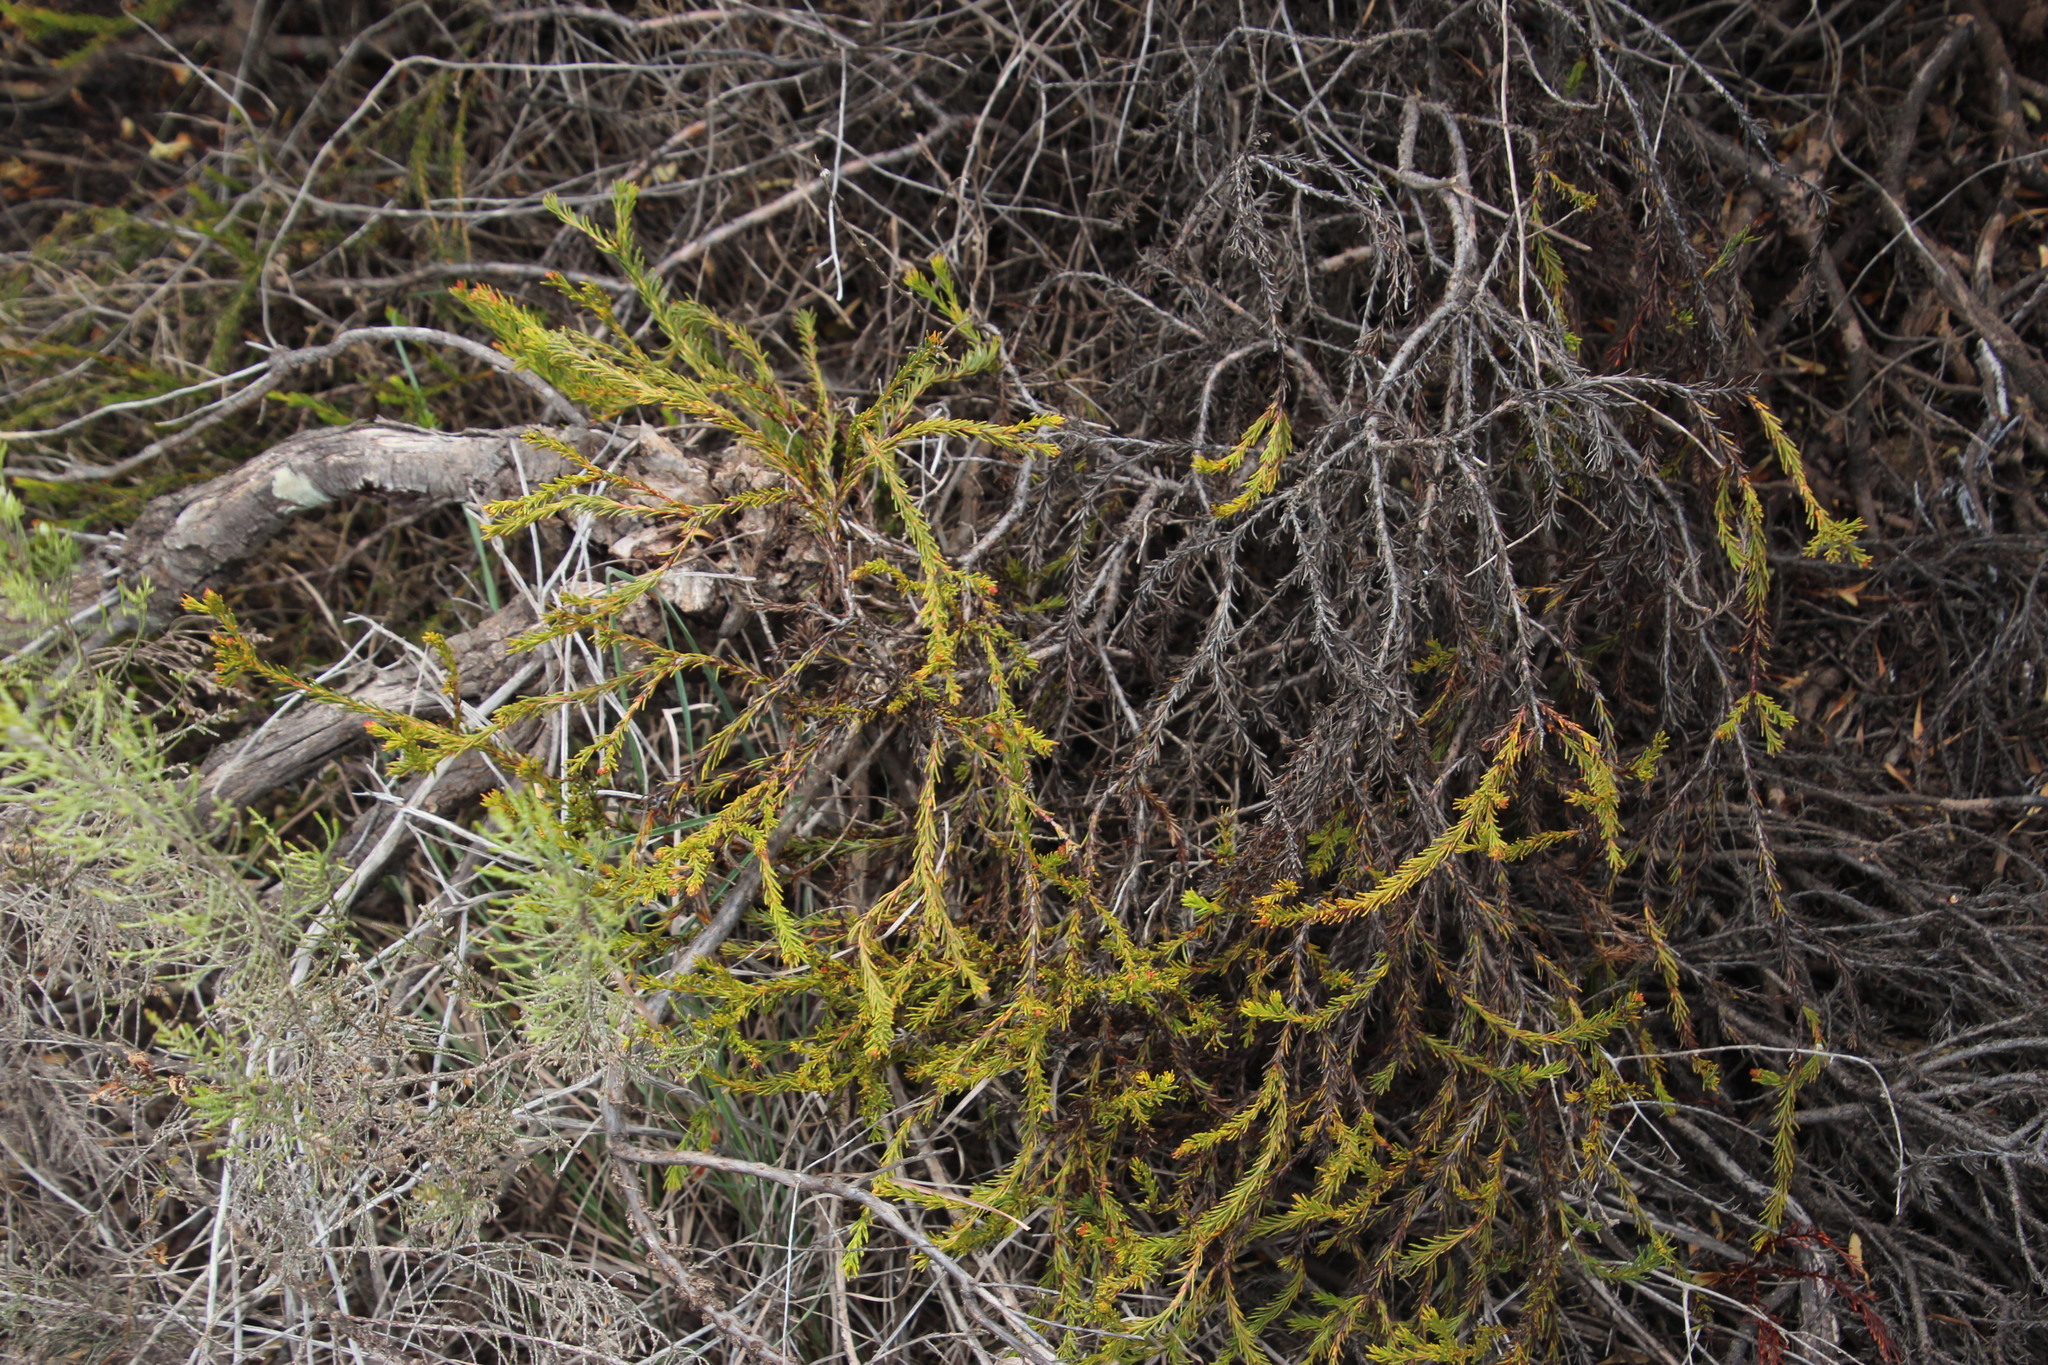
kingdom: Plantae
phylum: Tracheophyta
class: Magnoliopsida
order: Proteales
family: Proteaceae
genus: Protea
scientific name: Protea subulifolia
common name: Awl-leaf sugarbush
